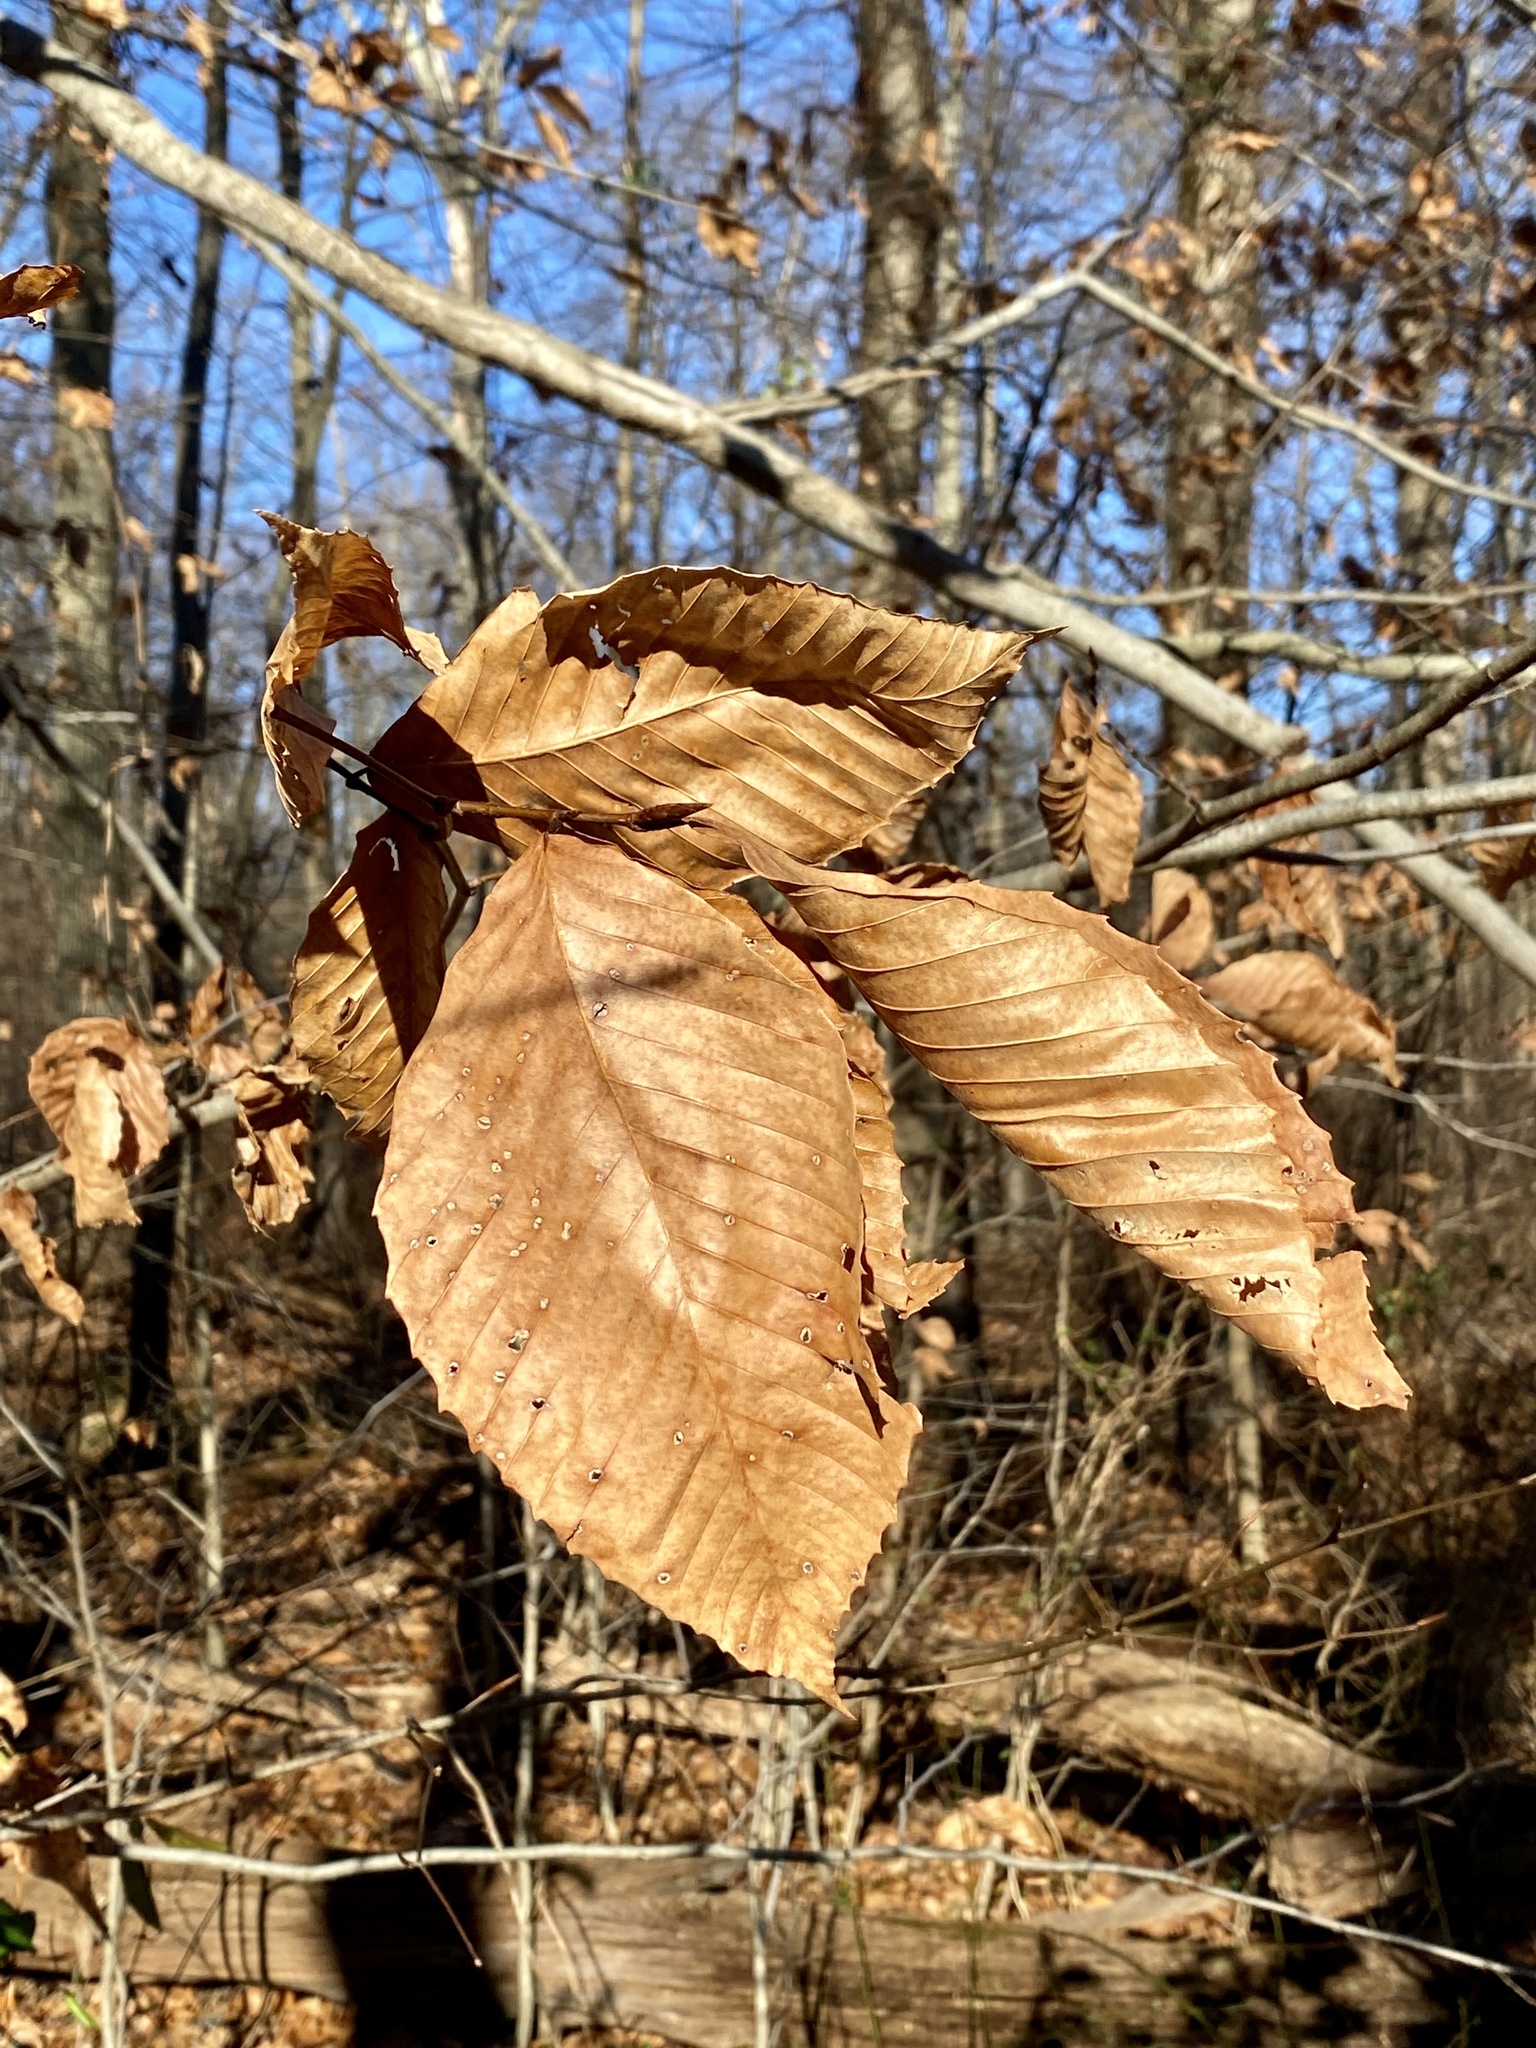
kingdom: Plantae
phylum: Tracheophyta
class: Magnoliopsida
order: Fagales
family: Fagaceae
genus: Fagus
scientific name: Fagus grandifolia
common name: American beech
